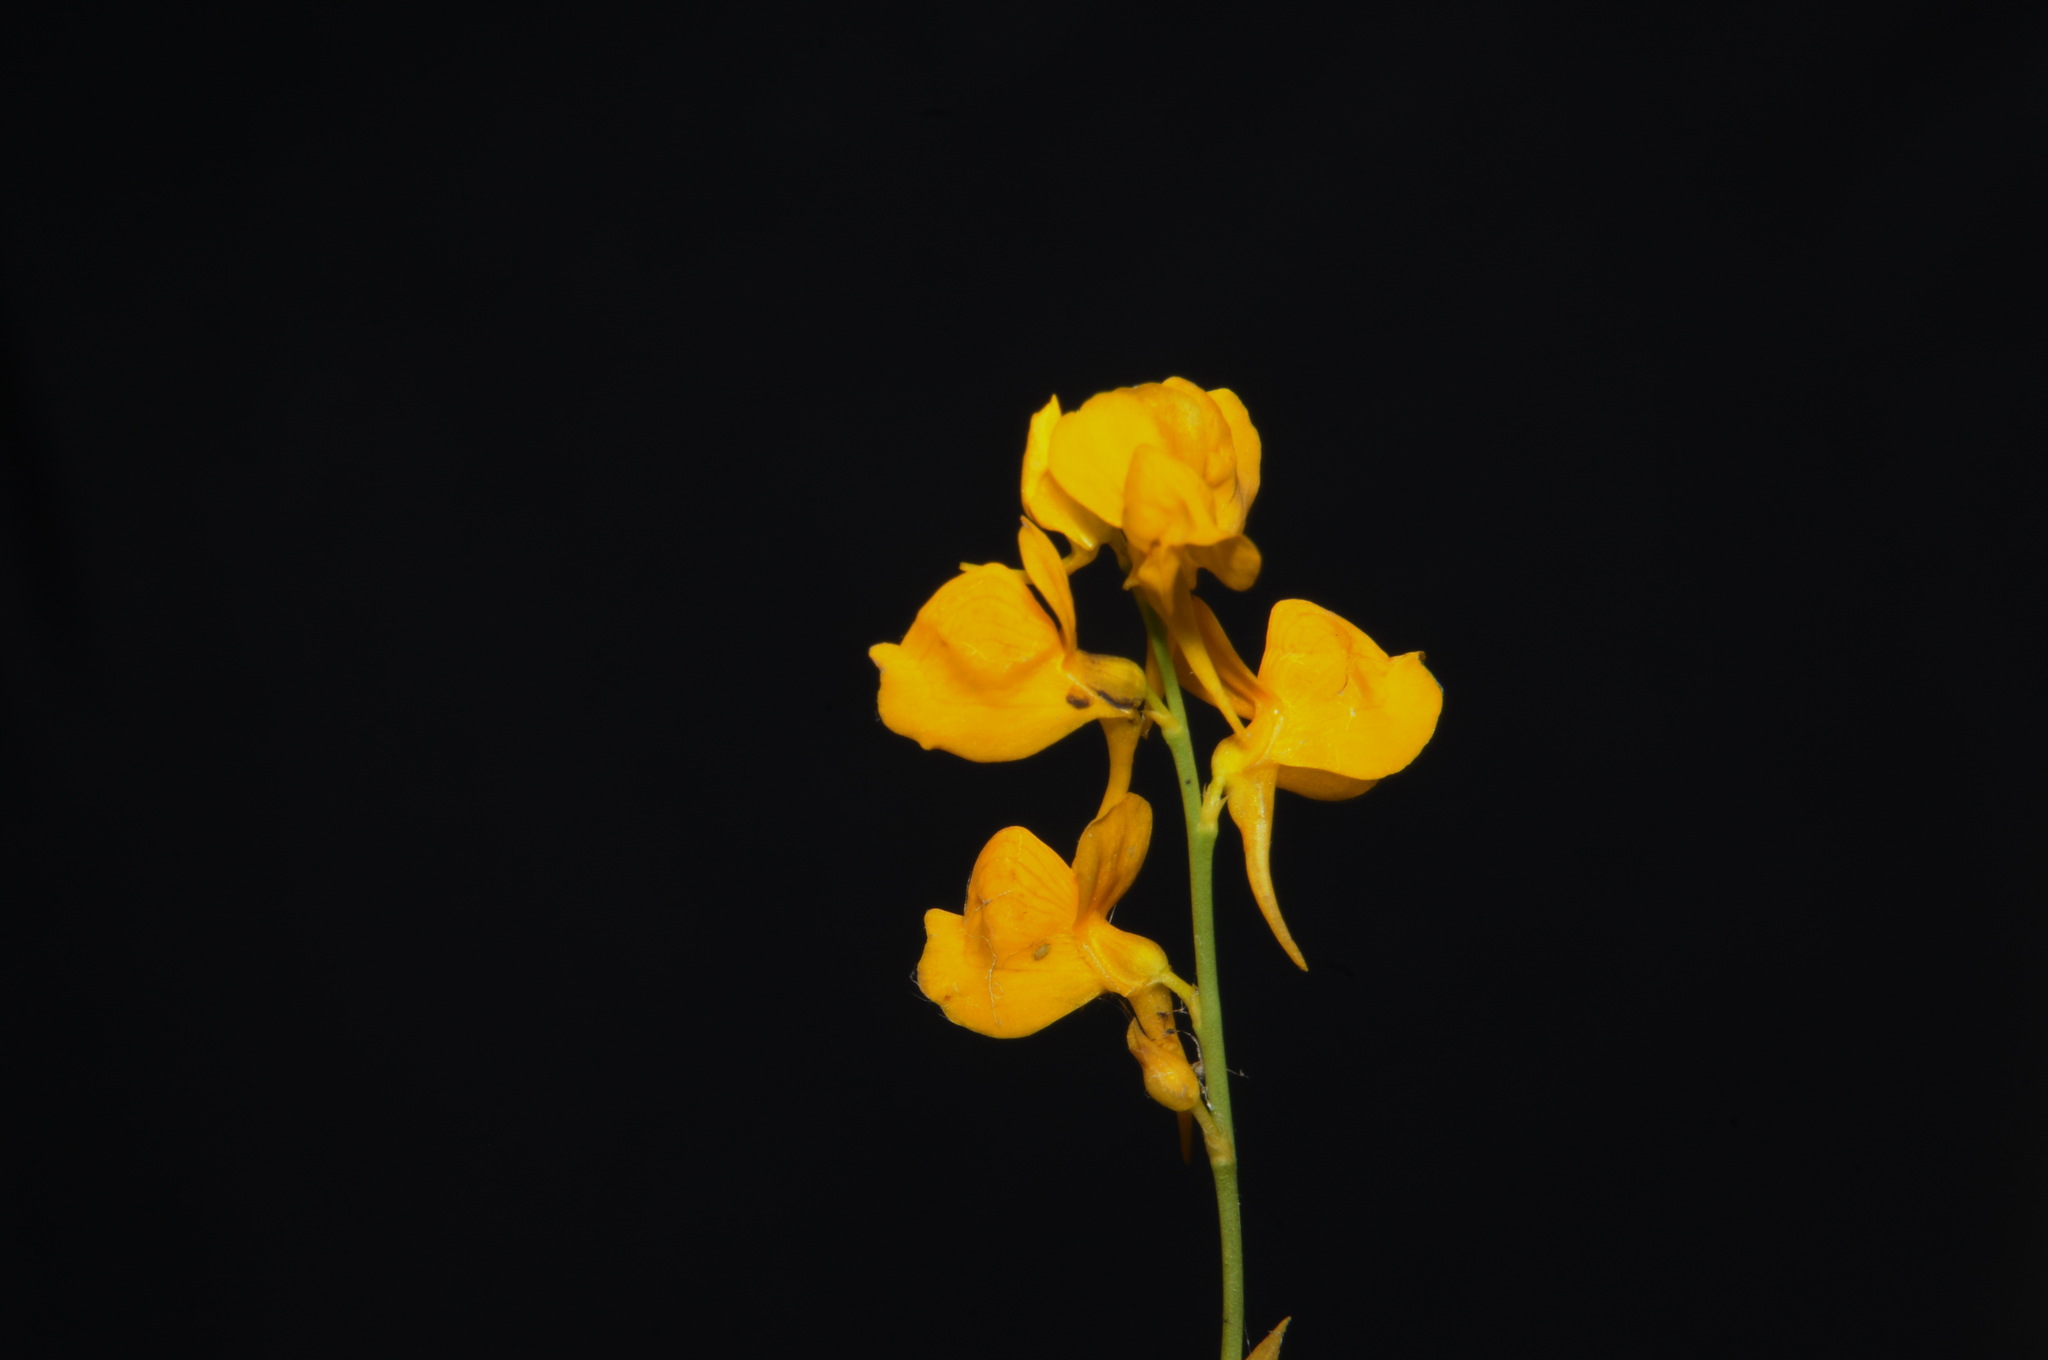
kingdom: Plantae
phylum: Tracheophyta
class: Magnoliopsida
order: Lamiales
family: Lentibulariaceae
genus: Utricularia
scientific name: Utricularia cornuta
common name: Horned bladderwort
